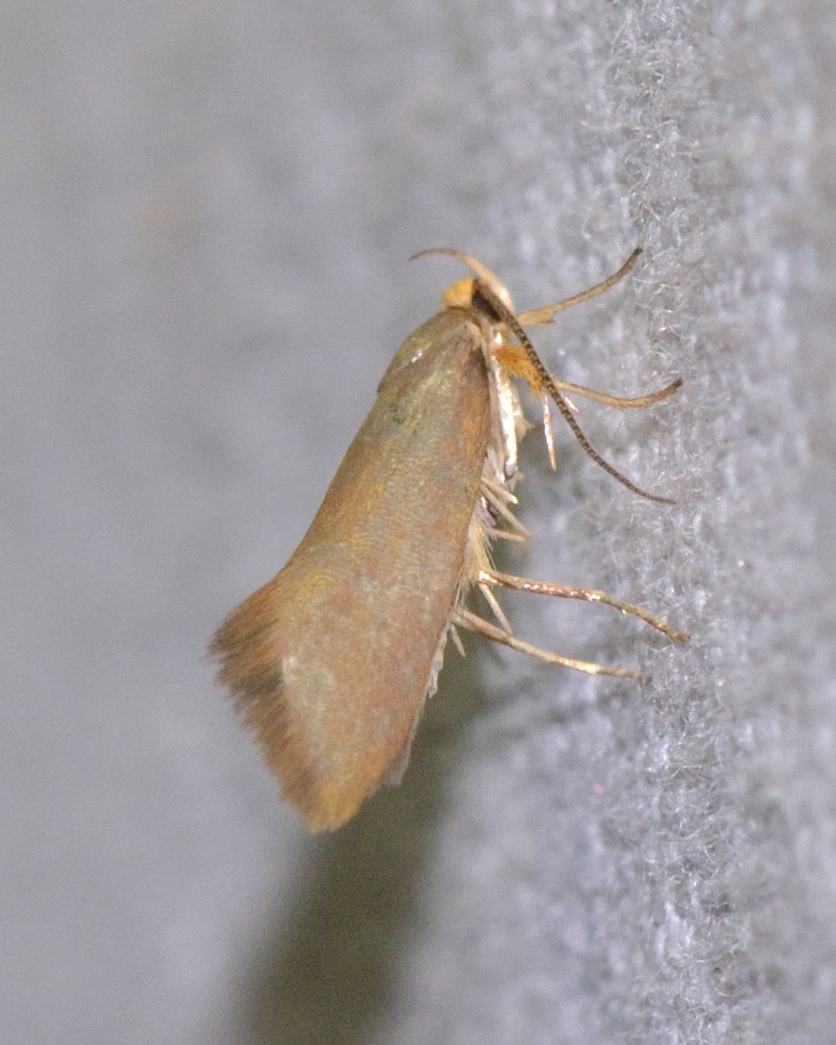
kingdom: Animalia
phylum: Arthropoda
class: Insecta
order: Lepidoptera
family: Oecophoridae
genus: Borkhausenia
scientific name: Borkhausenia Crassa unitella
